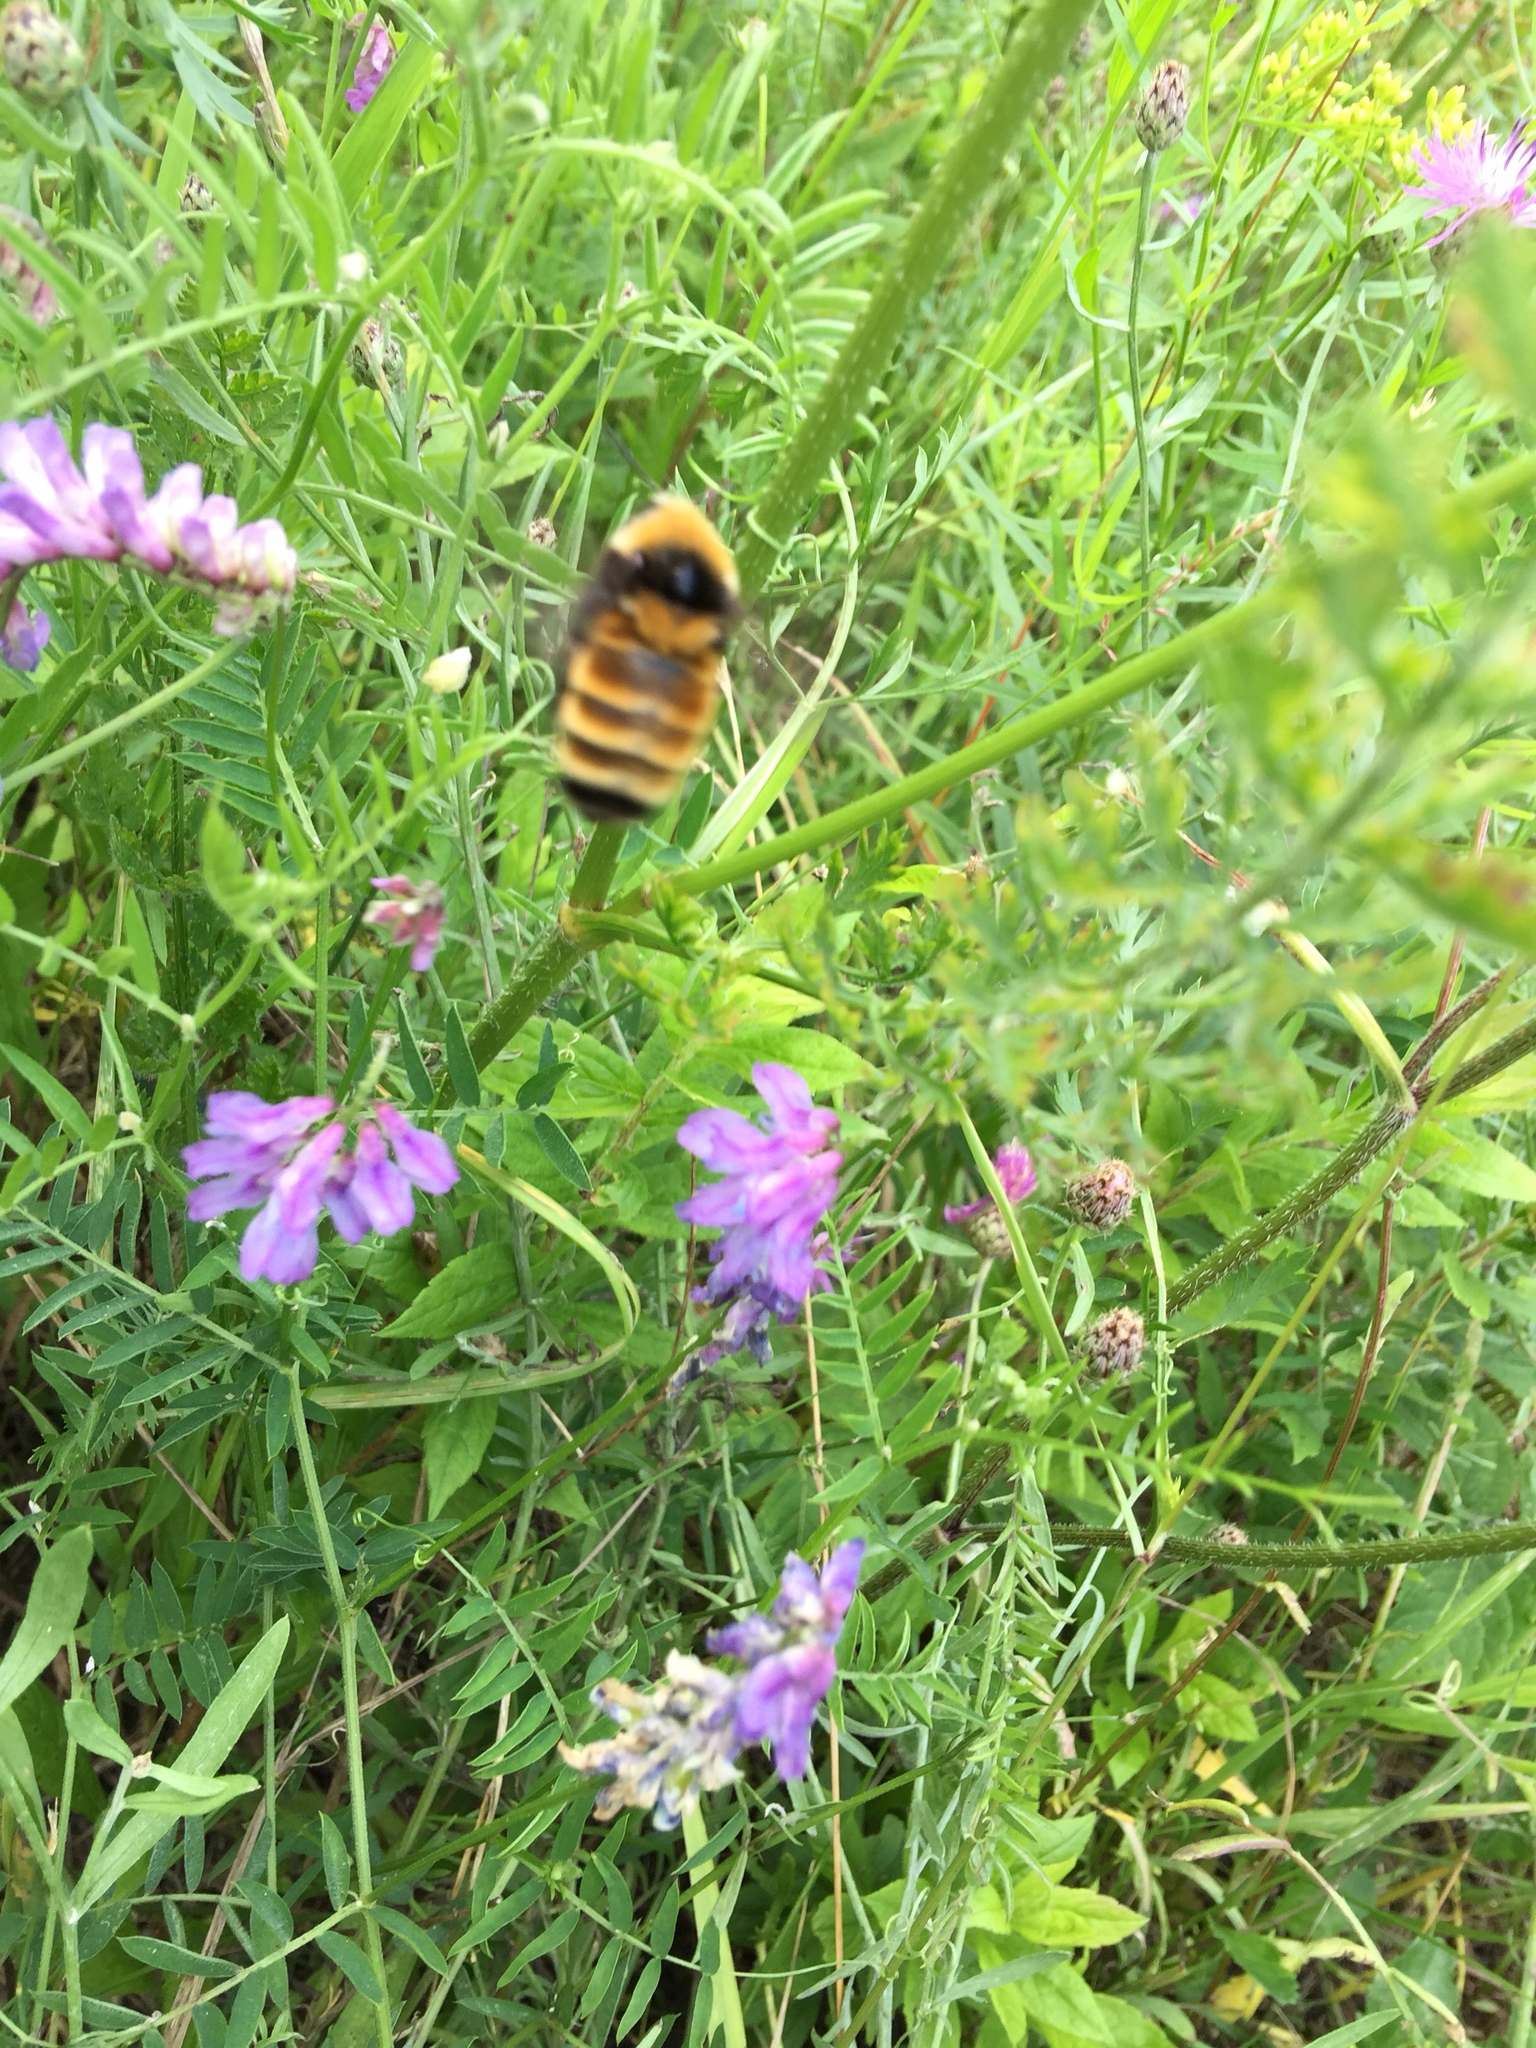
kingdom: Animalia
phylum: Arthropoda
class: Insecta
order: Hymenoptera
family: Apidae
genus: Bombus
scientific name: Bombus borealis
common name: Northern amber bumble bee
